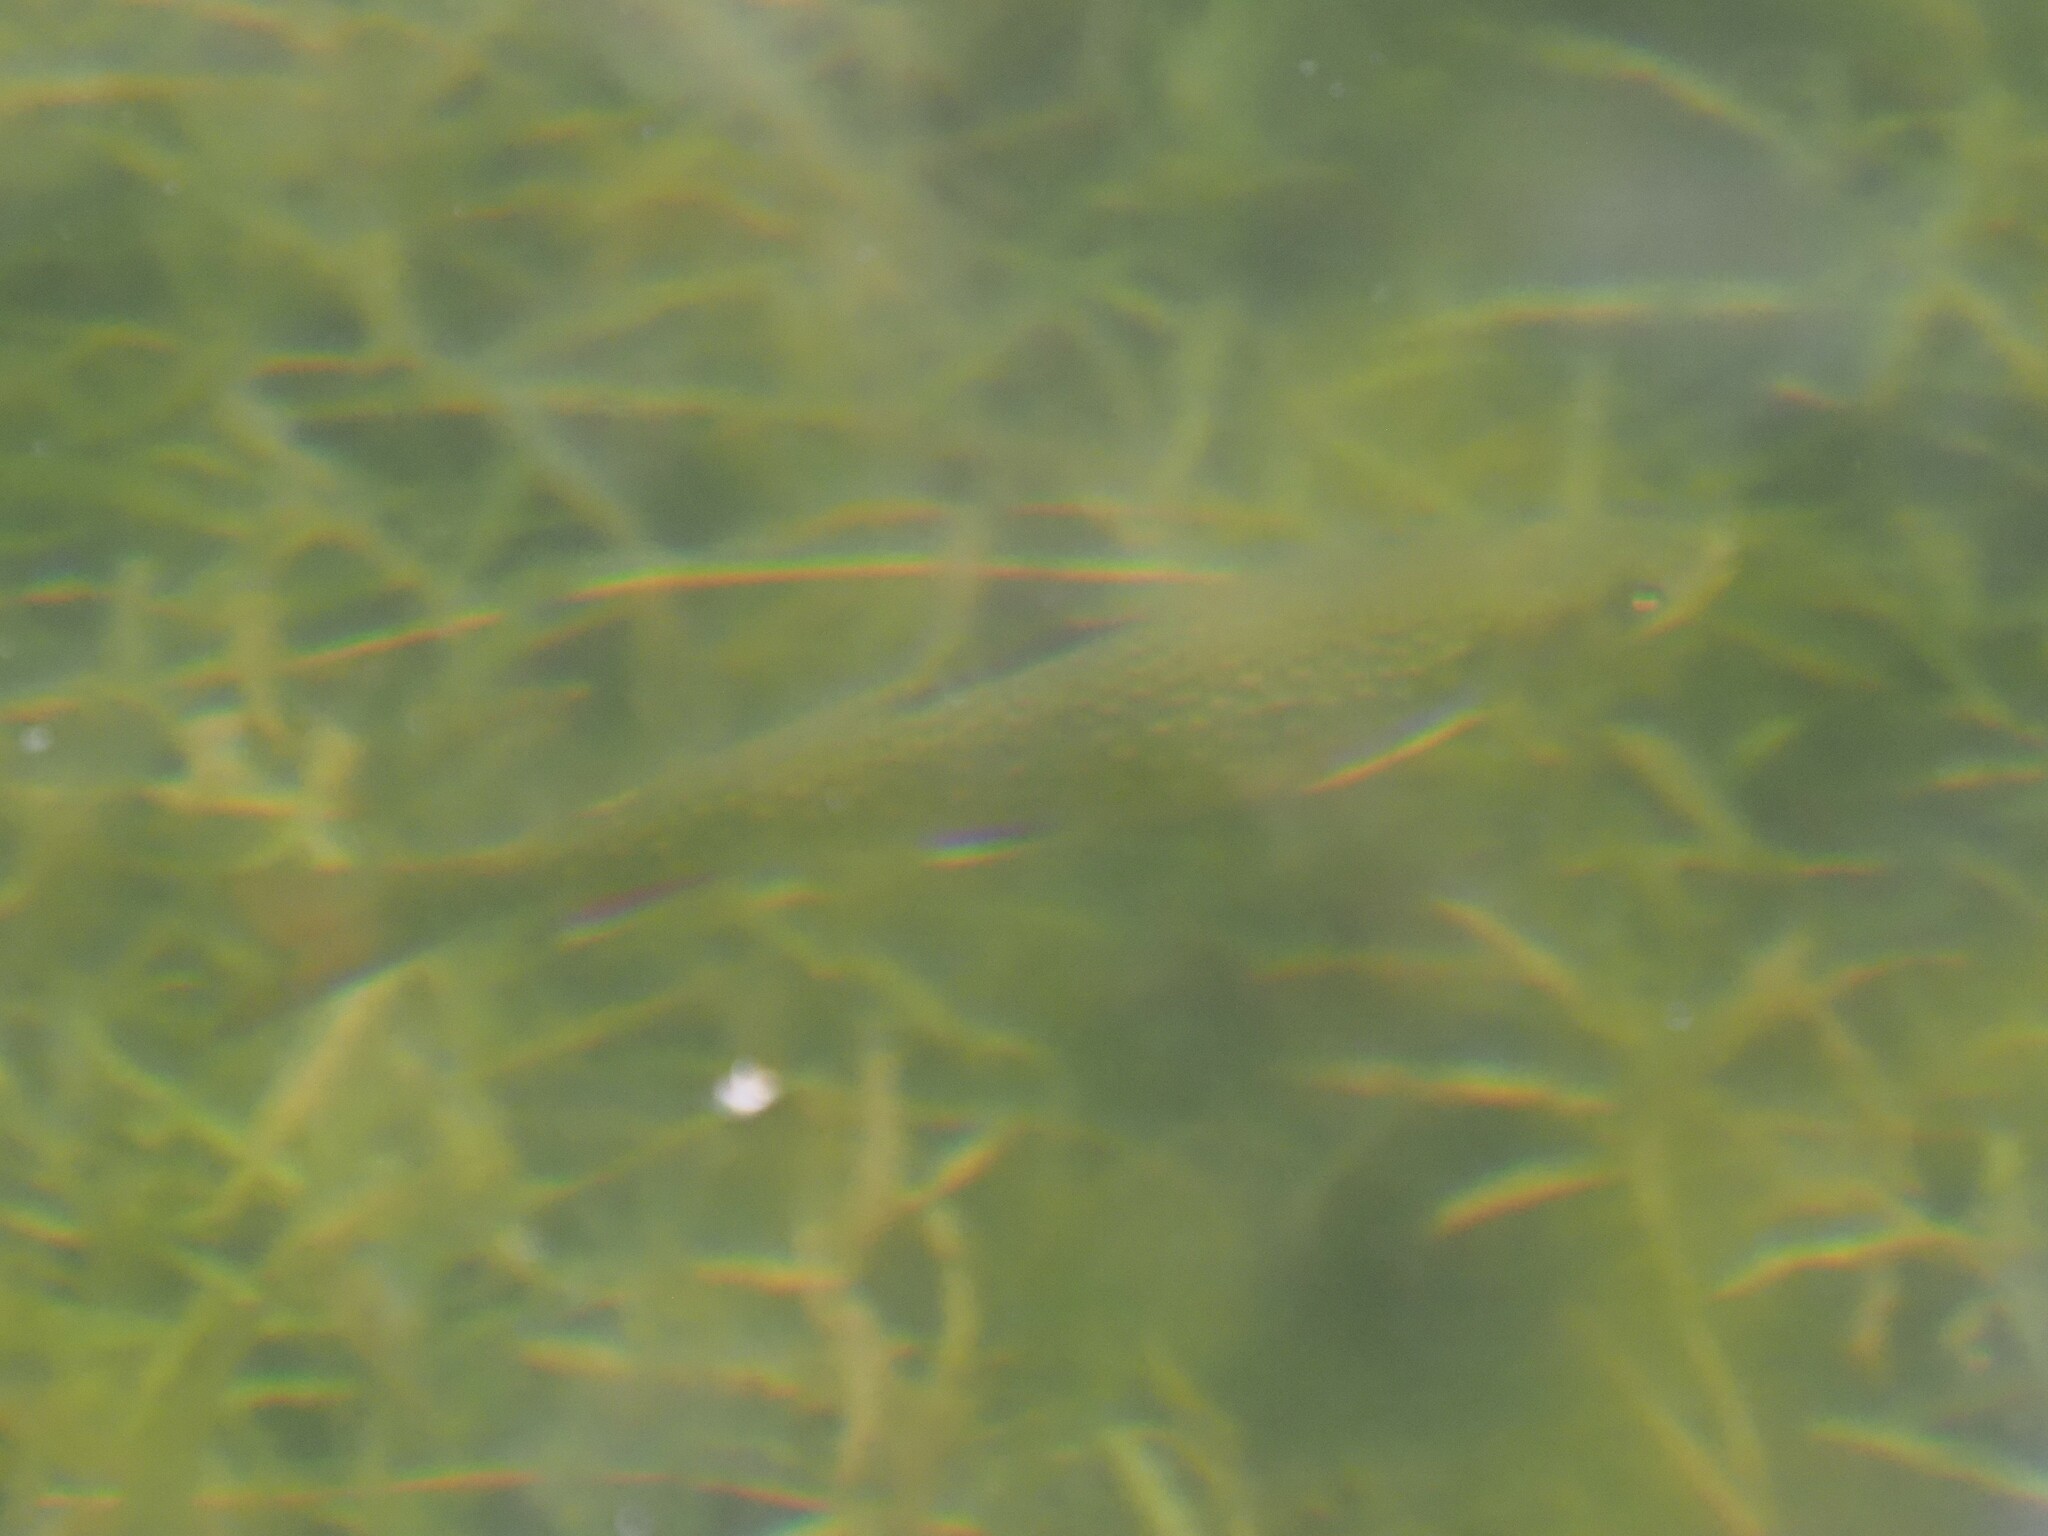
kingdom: Animalia
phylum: Chordata
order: Salmoniformes
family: Salmonidae
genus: Salvelinus
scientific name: Salvelinus fontinalis
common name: Brook trout
